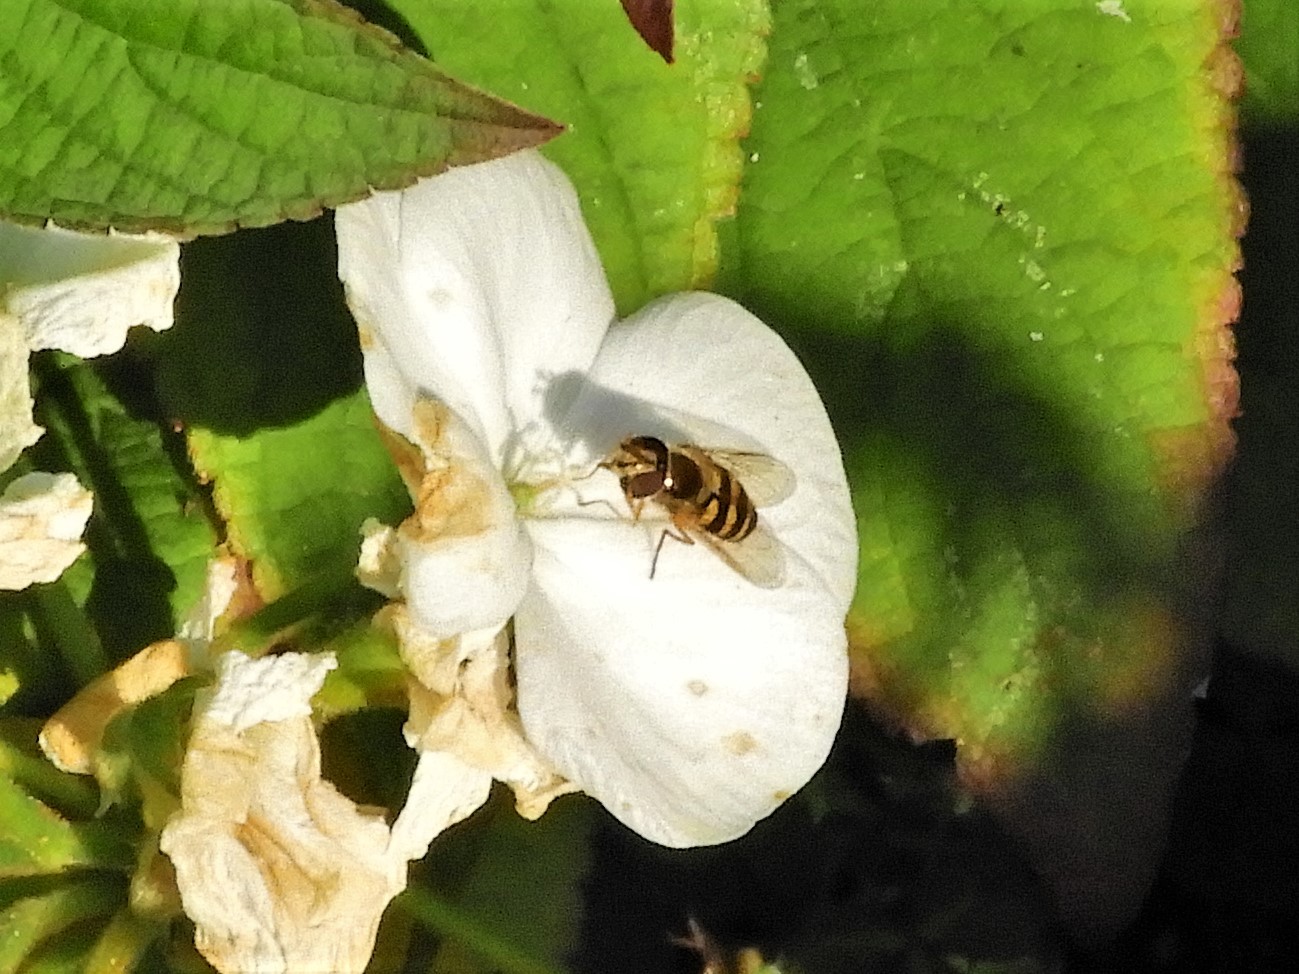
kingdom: Animalia
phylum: Arthropoda
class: Insecta
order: Diptera
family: Syrphidae
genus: Syrphus
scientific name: Syrphus opinator
